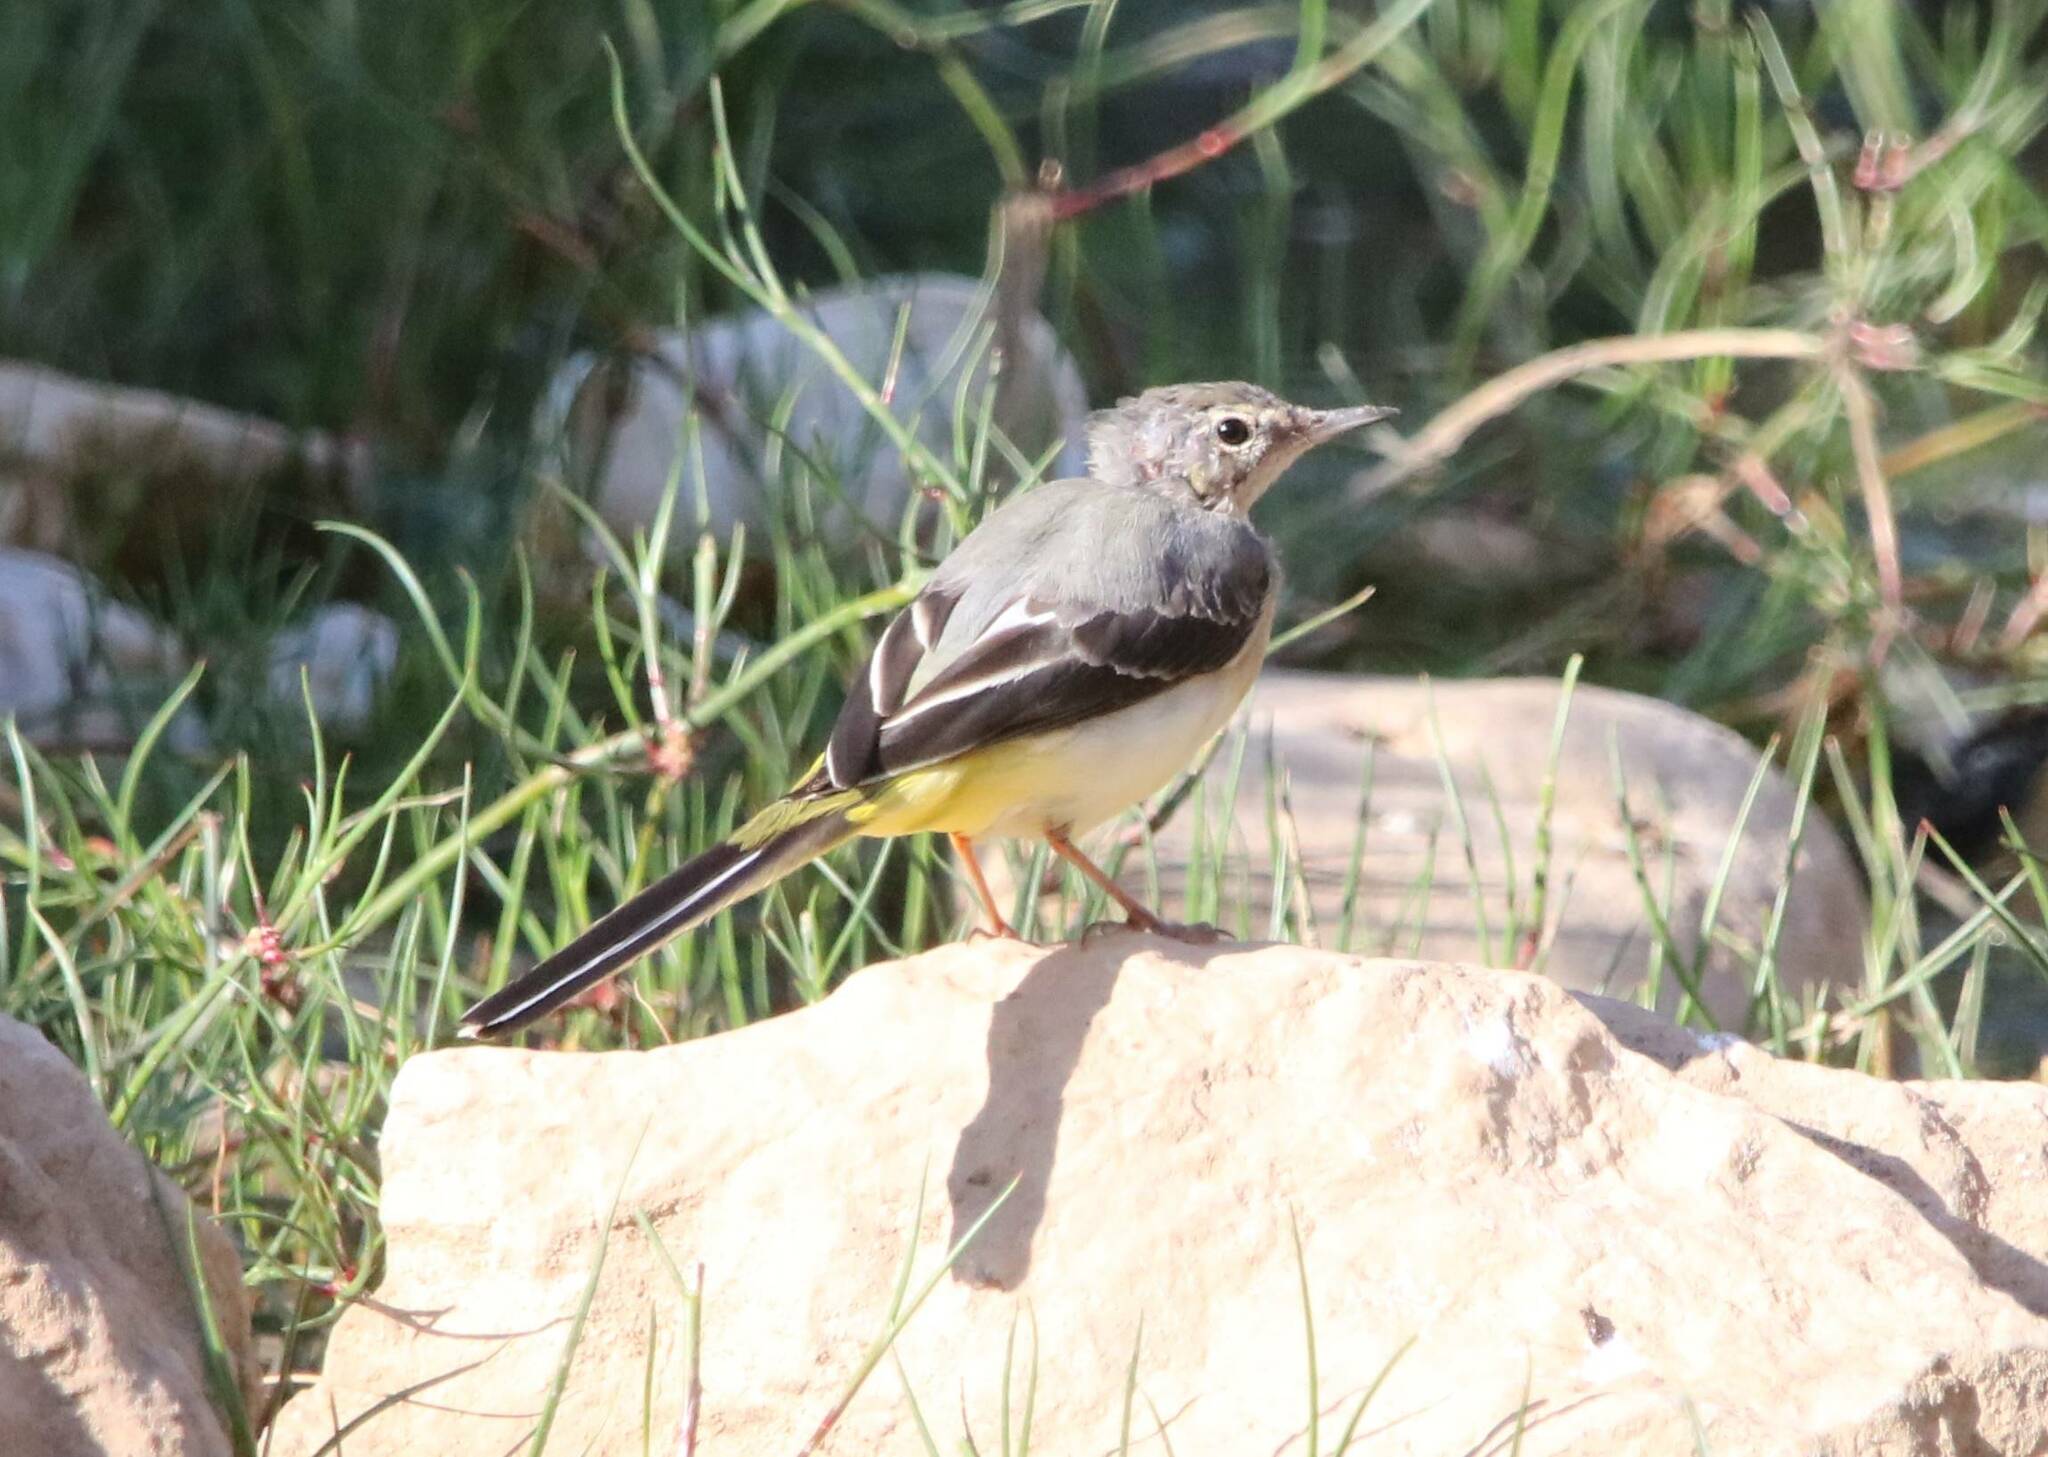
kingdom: Animalia
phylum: Chordata
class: Aves
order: Passeriformes
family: Motacillidae
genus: Motacilla
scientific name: Motacilla cinerea
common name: Grey wagtail
